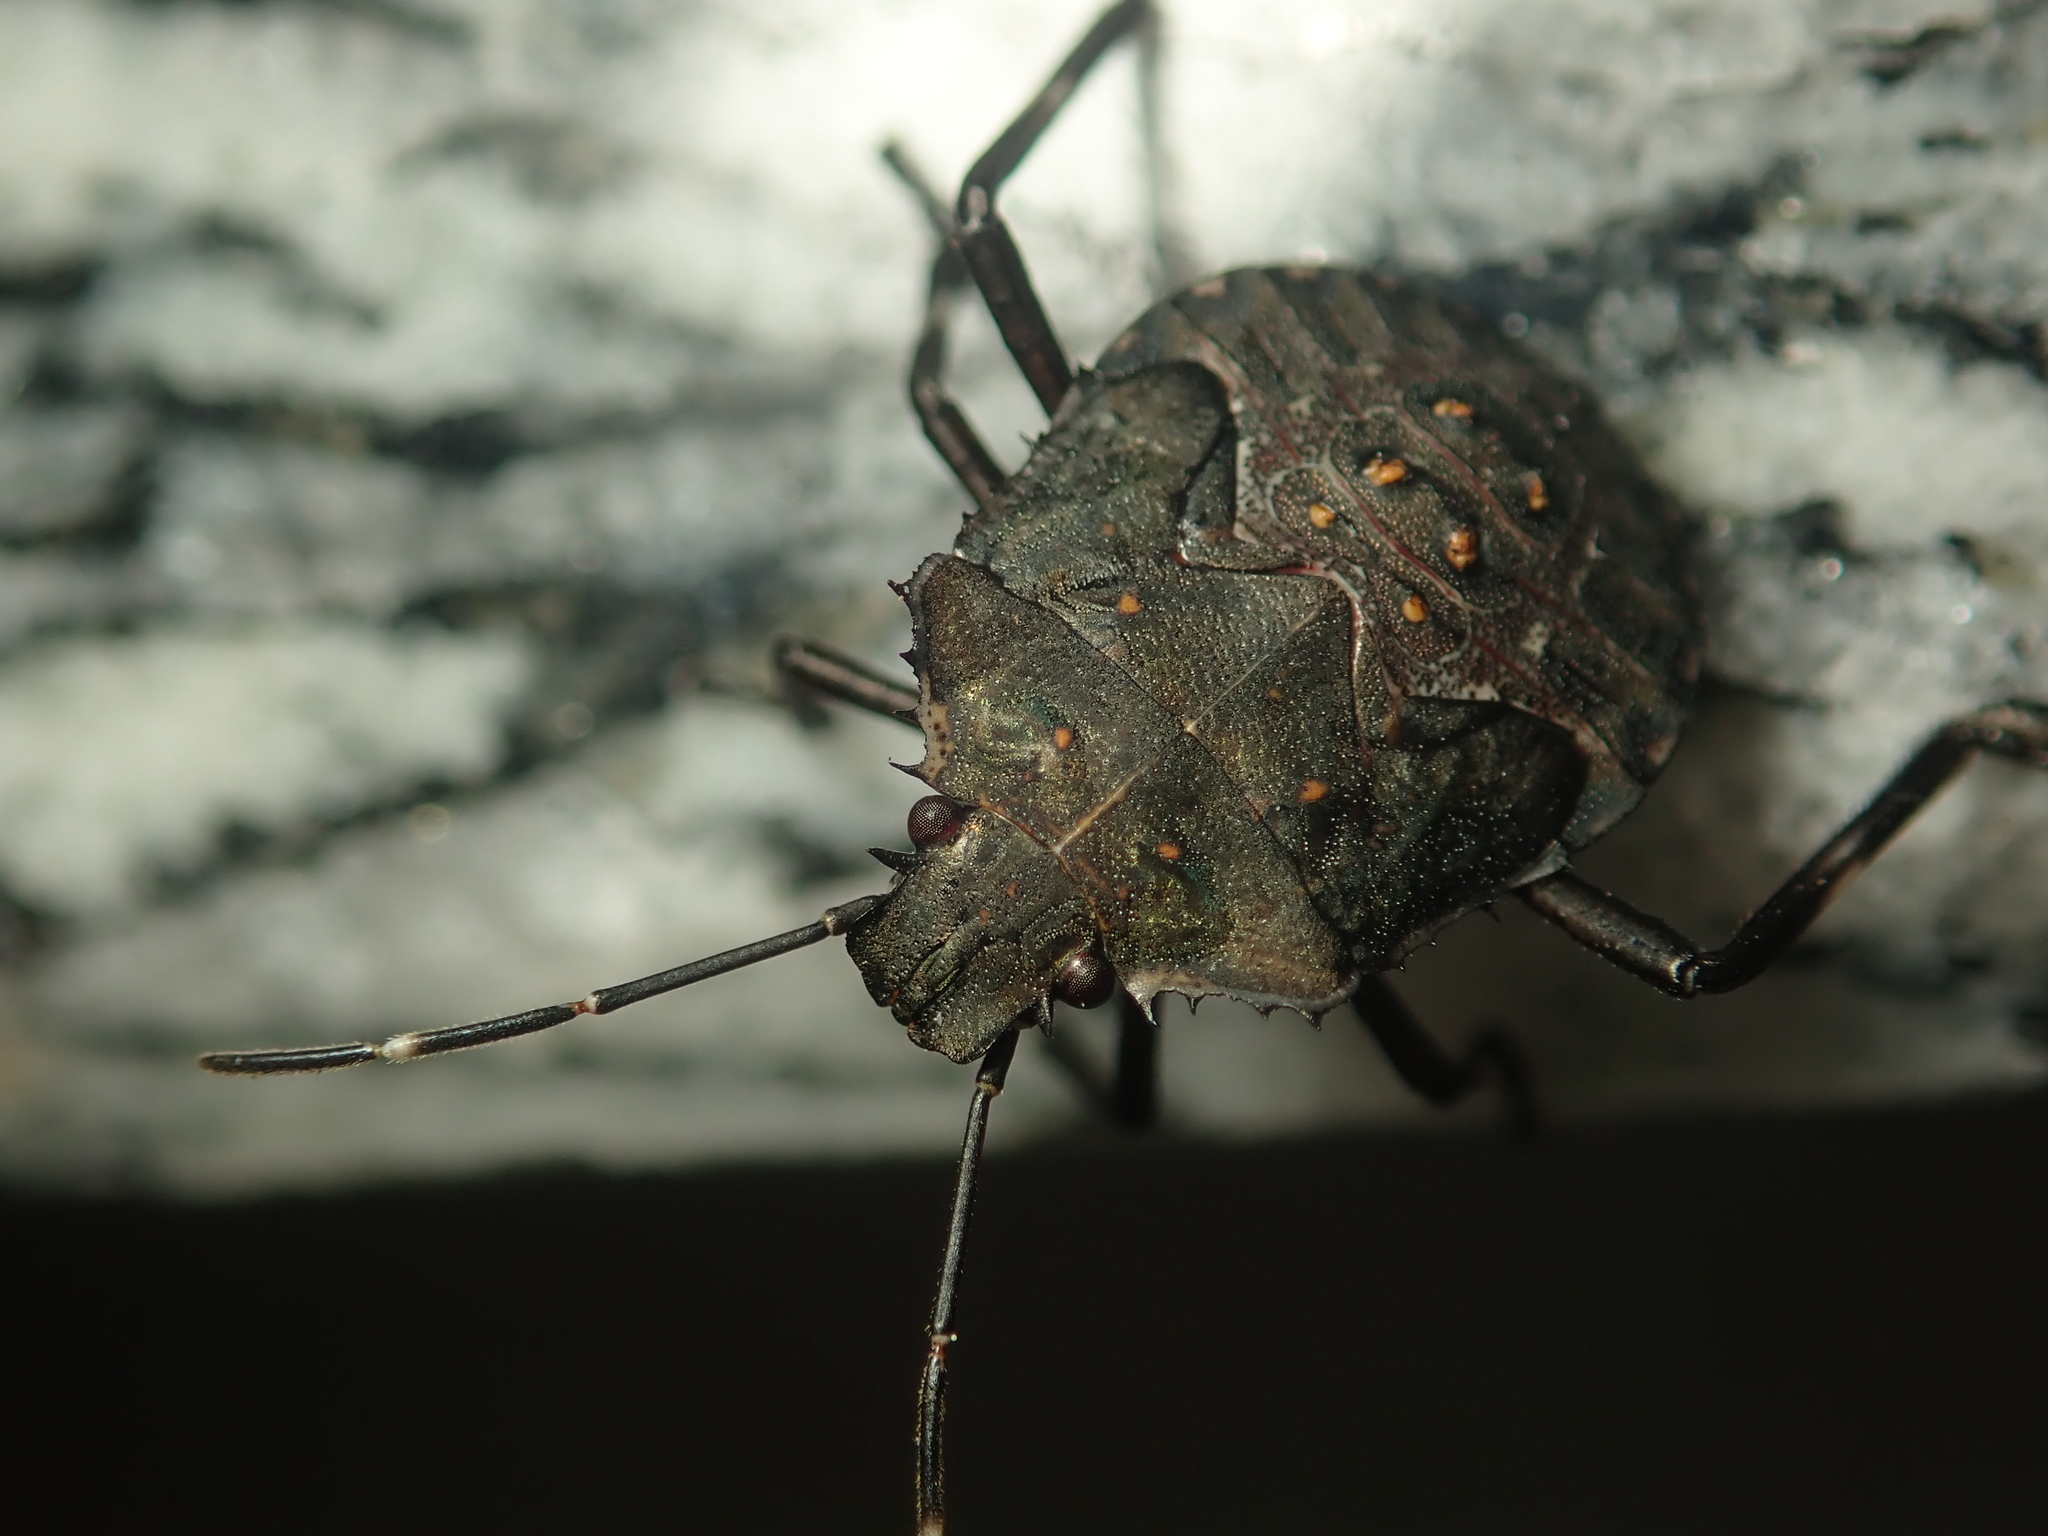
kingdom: Animalia
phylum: Arthropoda
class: Insecta
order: Hemiptera
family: Pentatomidae
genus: Halyomorpha
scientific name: Halyomorpha halys
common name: Brown marmorated stink bug
